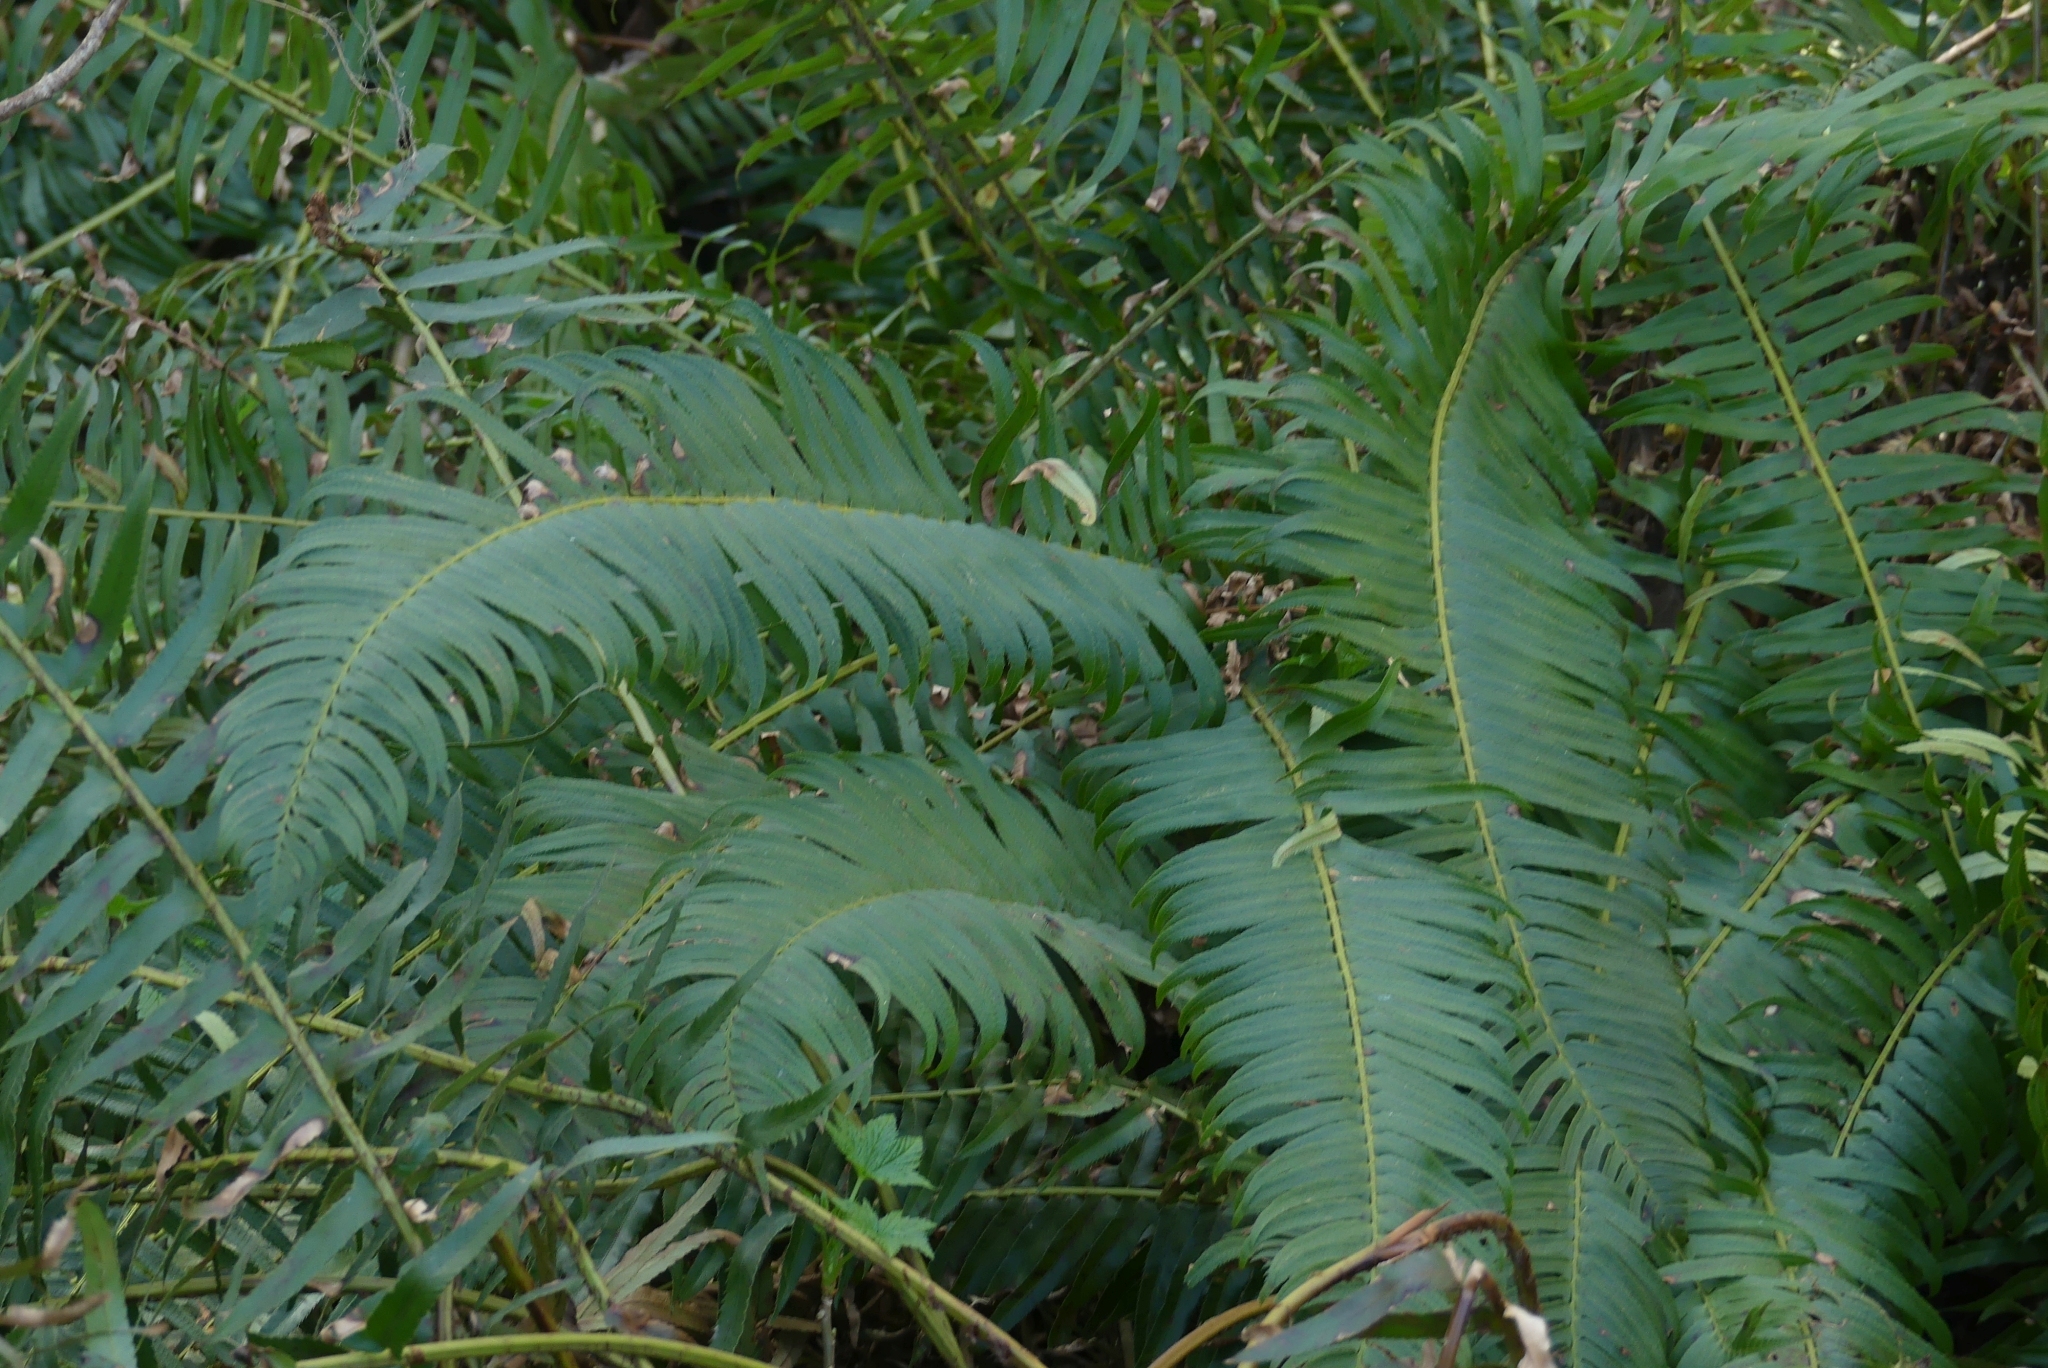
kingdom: Plantae
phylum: Tracheophyta
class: Polypodiopsida
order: Polypodiales
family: Dryopteridaceae
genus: Polystichum
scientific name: Polystichum munitum
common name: Western sword-fern
